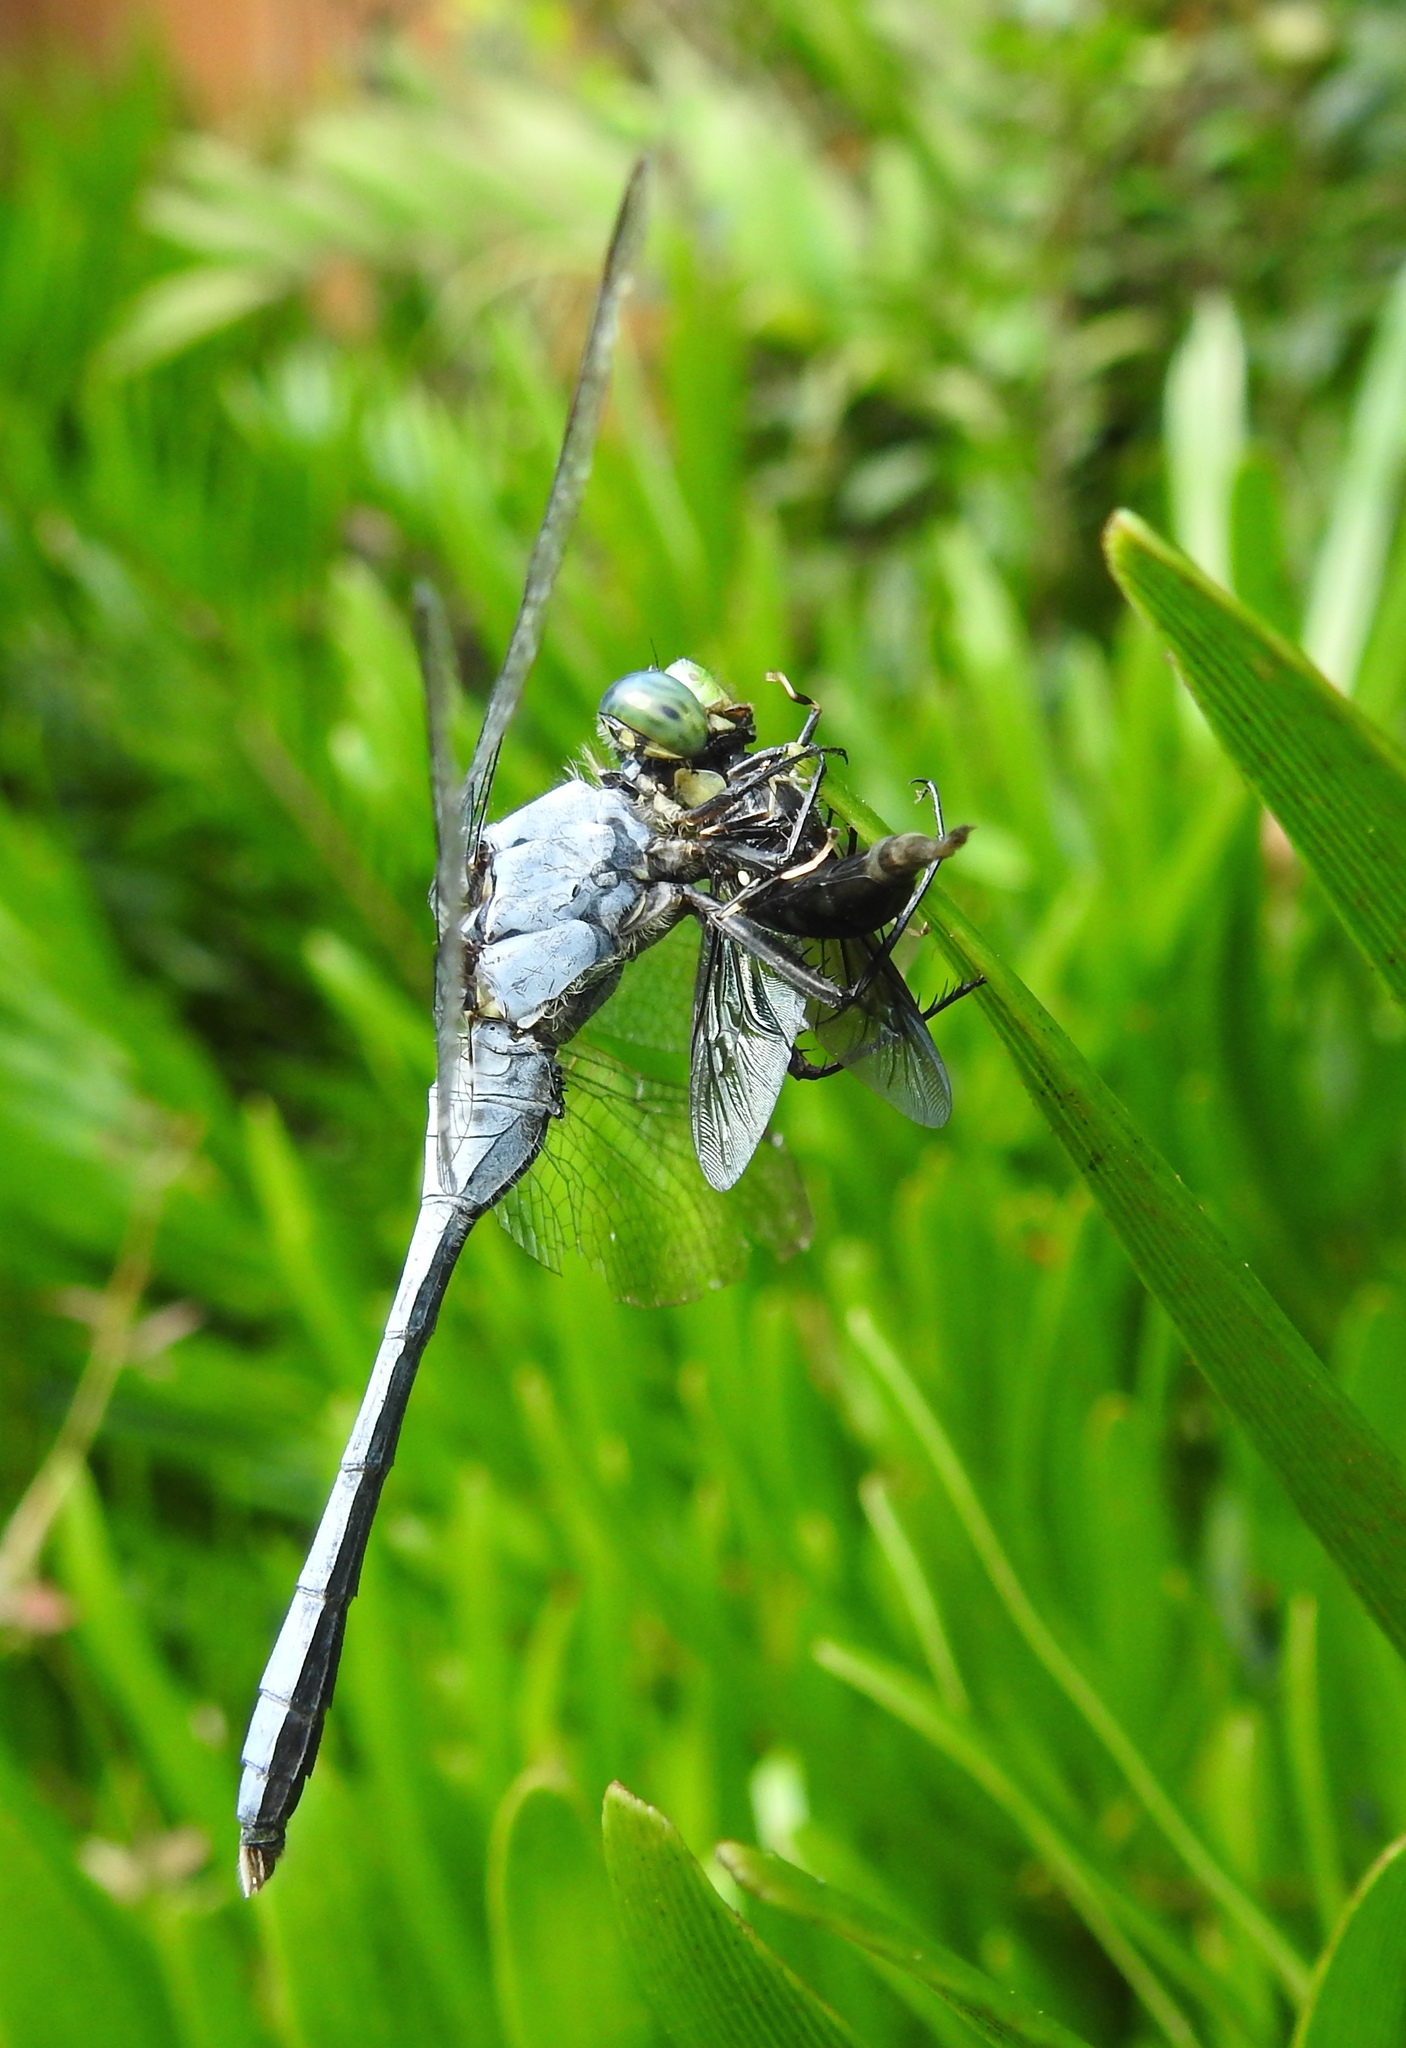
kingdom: Animalia
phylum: Arthropoda
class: Insecta
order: Odonata
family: Libellulidae
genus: Erythemis
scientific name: Erythemis simplicicollis
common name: Eastern pondhawk
